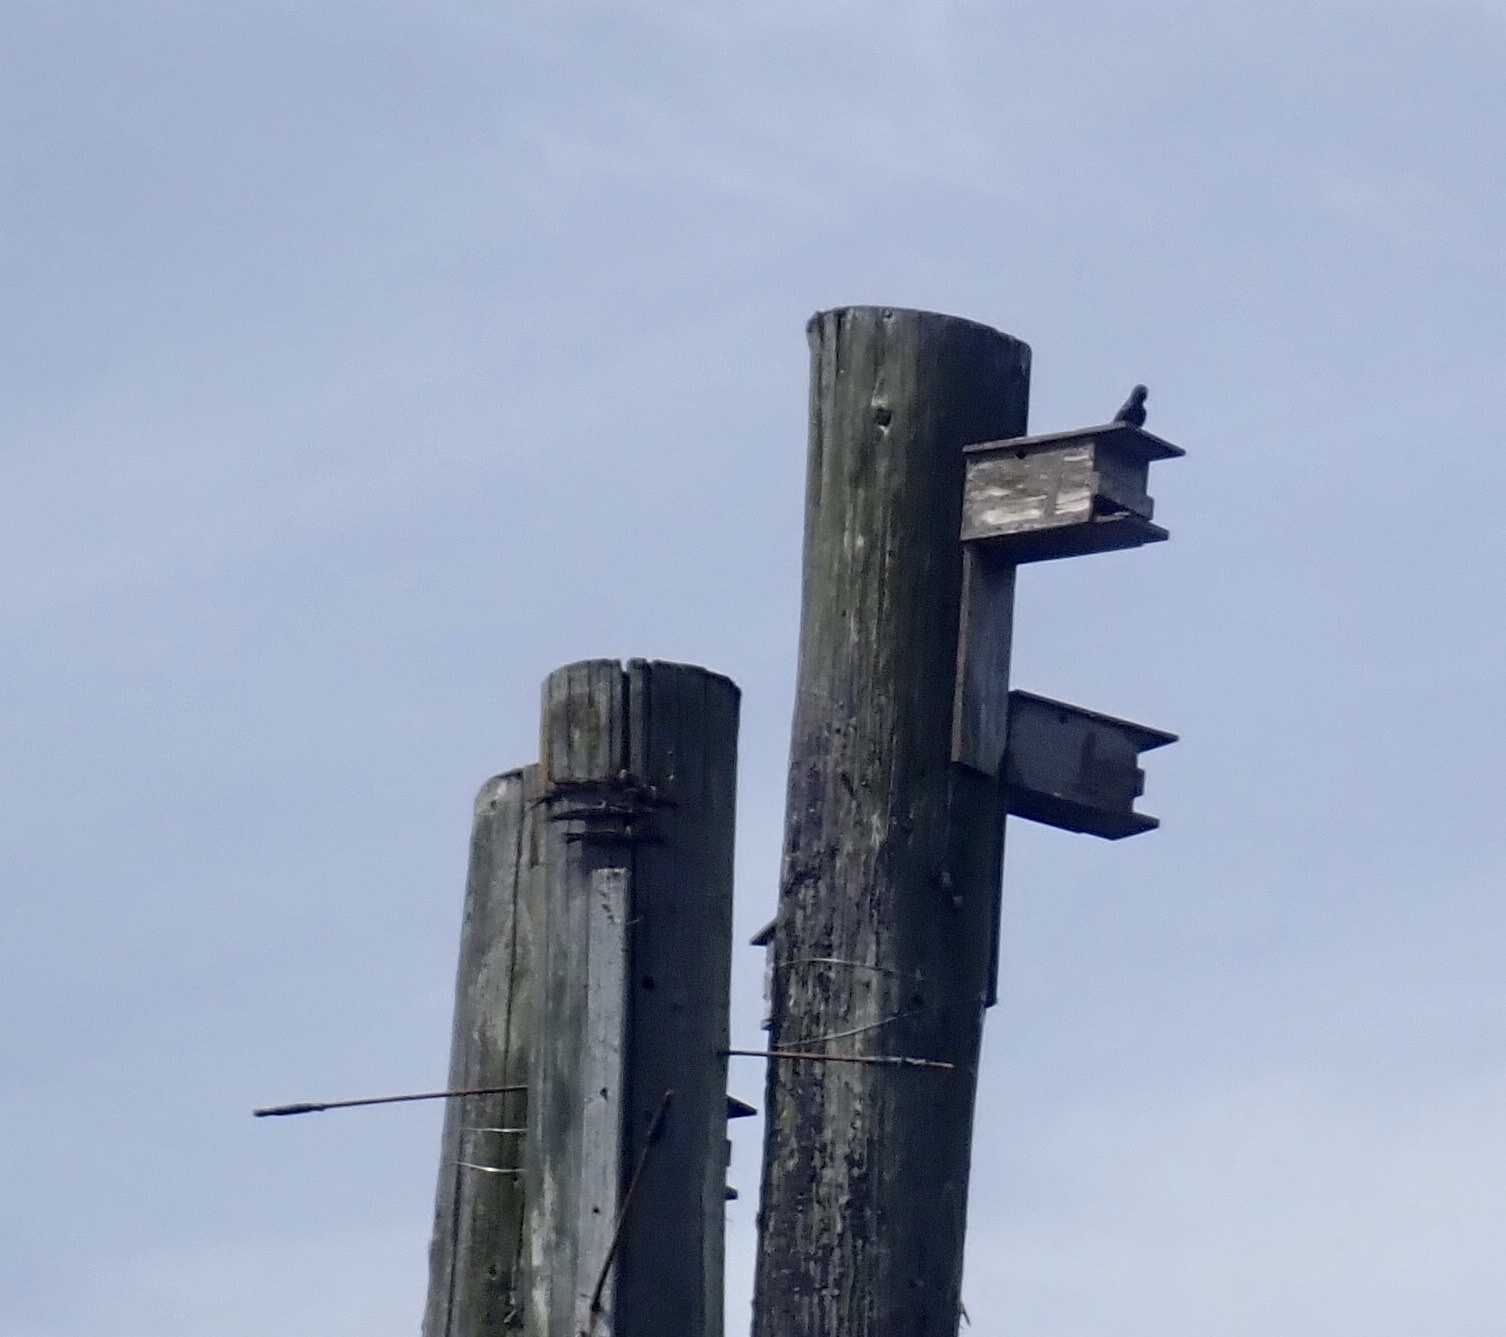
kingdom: Animalia
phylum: Chordata
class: Aves
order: Passeriformes
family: Hirundinidae
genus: Progne
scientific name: Progne subis
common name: Purple martin
